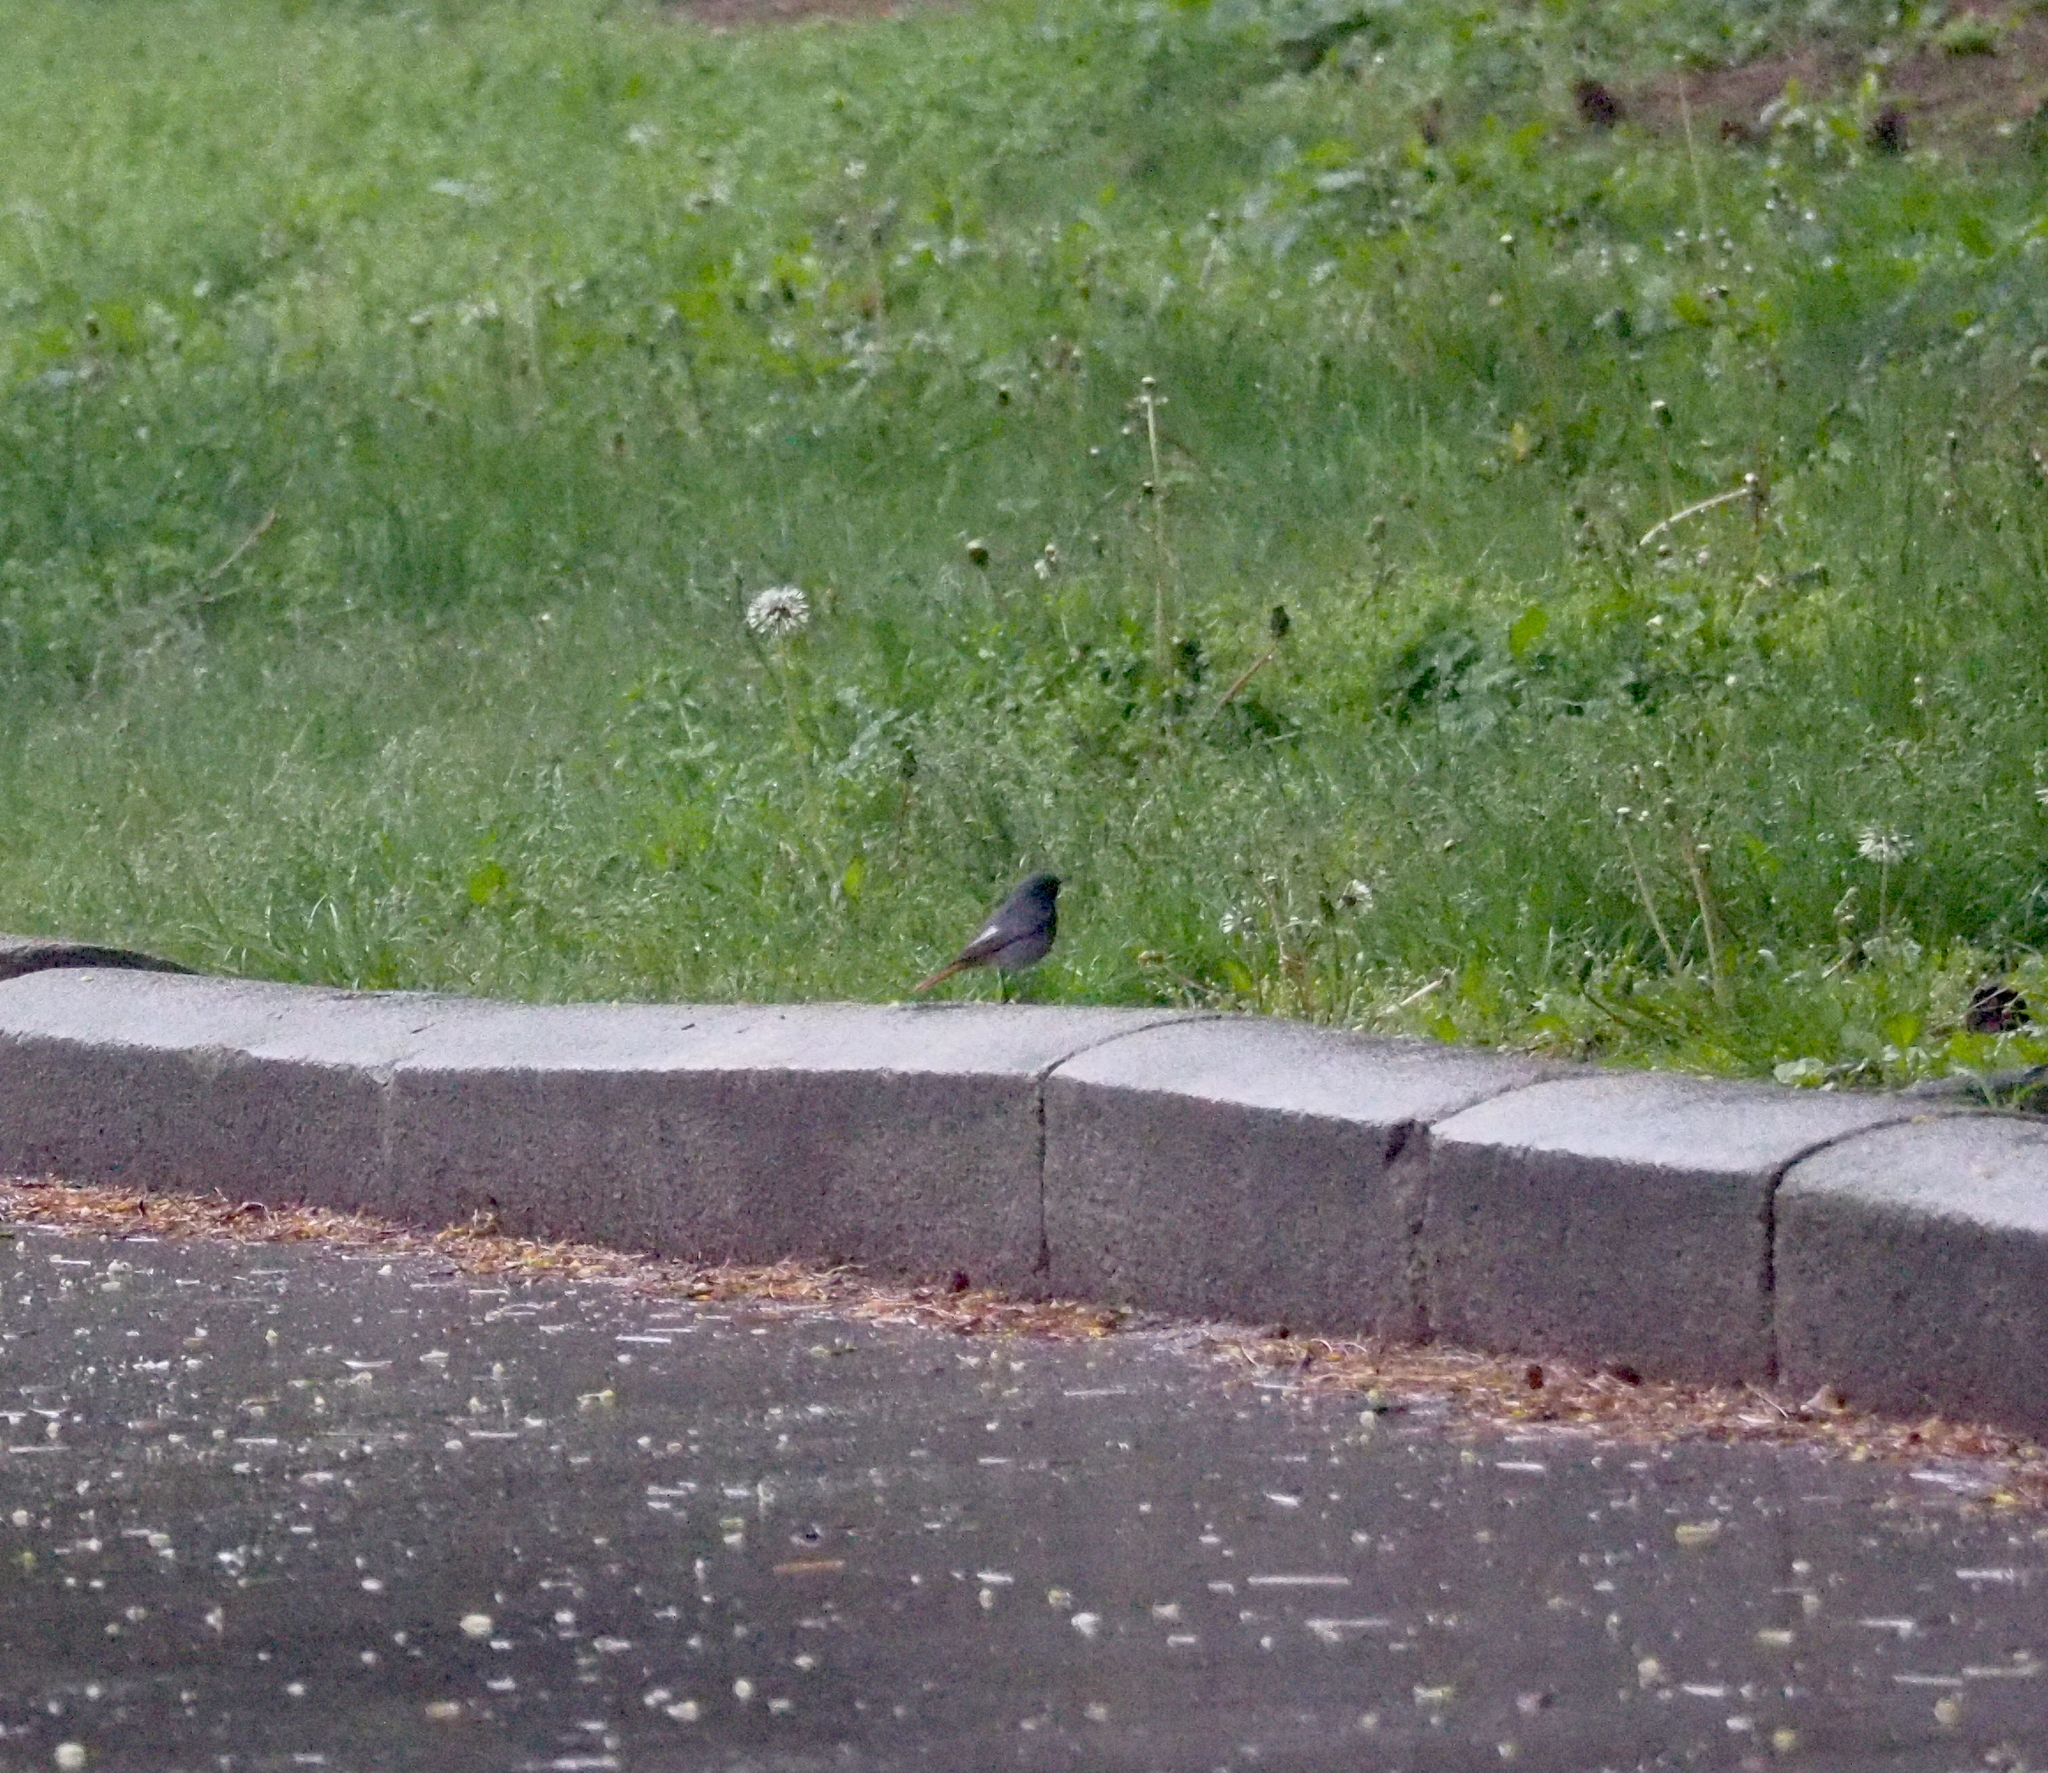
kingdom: Animalia
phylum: Chordata
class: Aves
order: Passeriformes
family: Muscicapidae
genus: Phoenicurus
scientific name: Phoenicurus ochruros
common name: Black redstart
